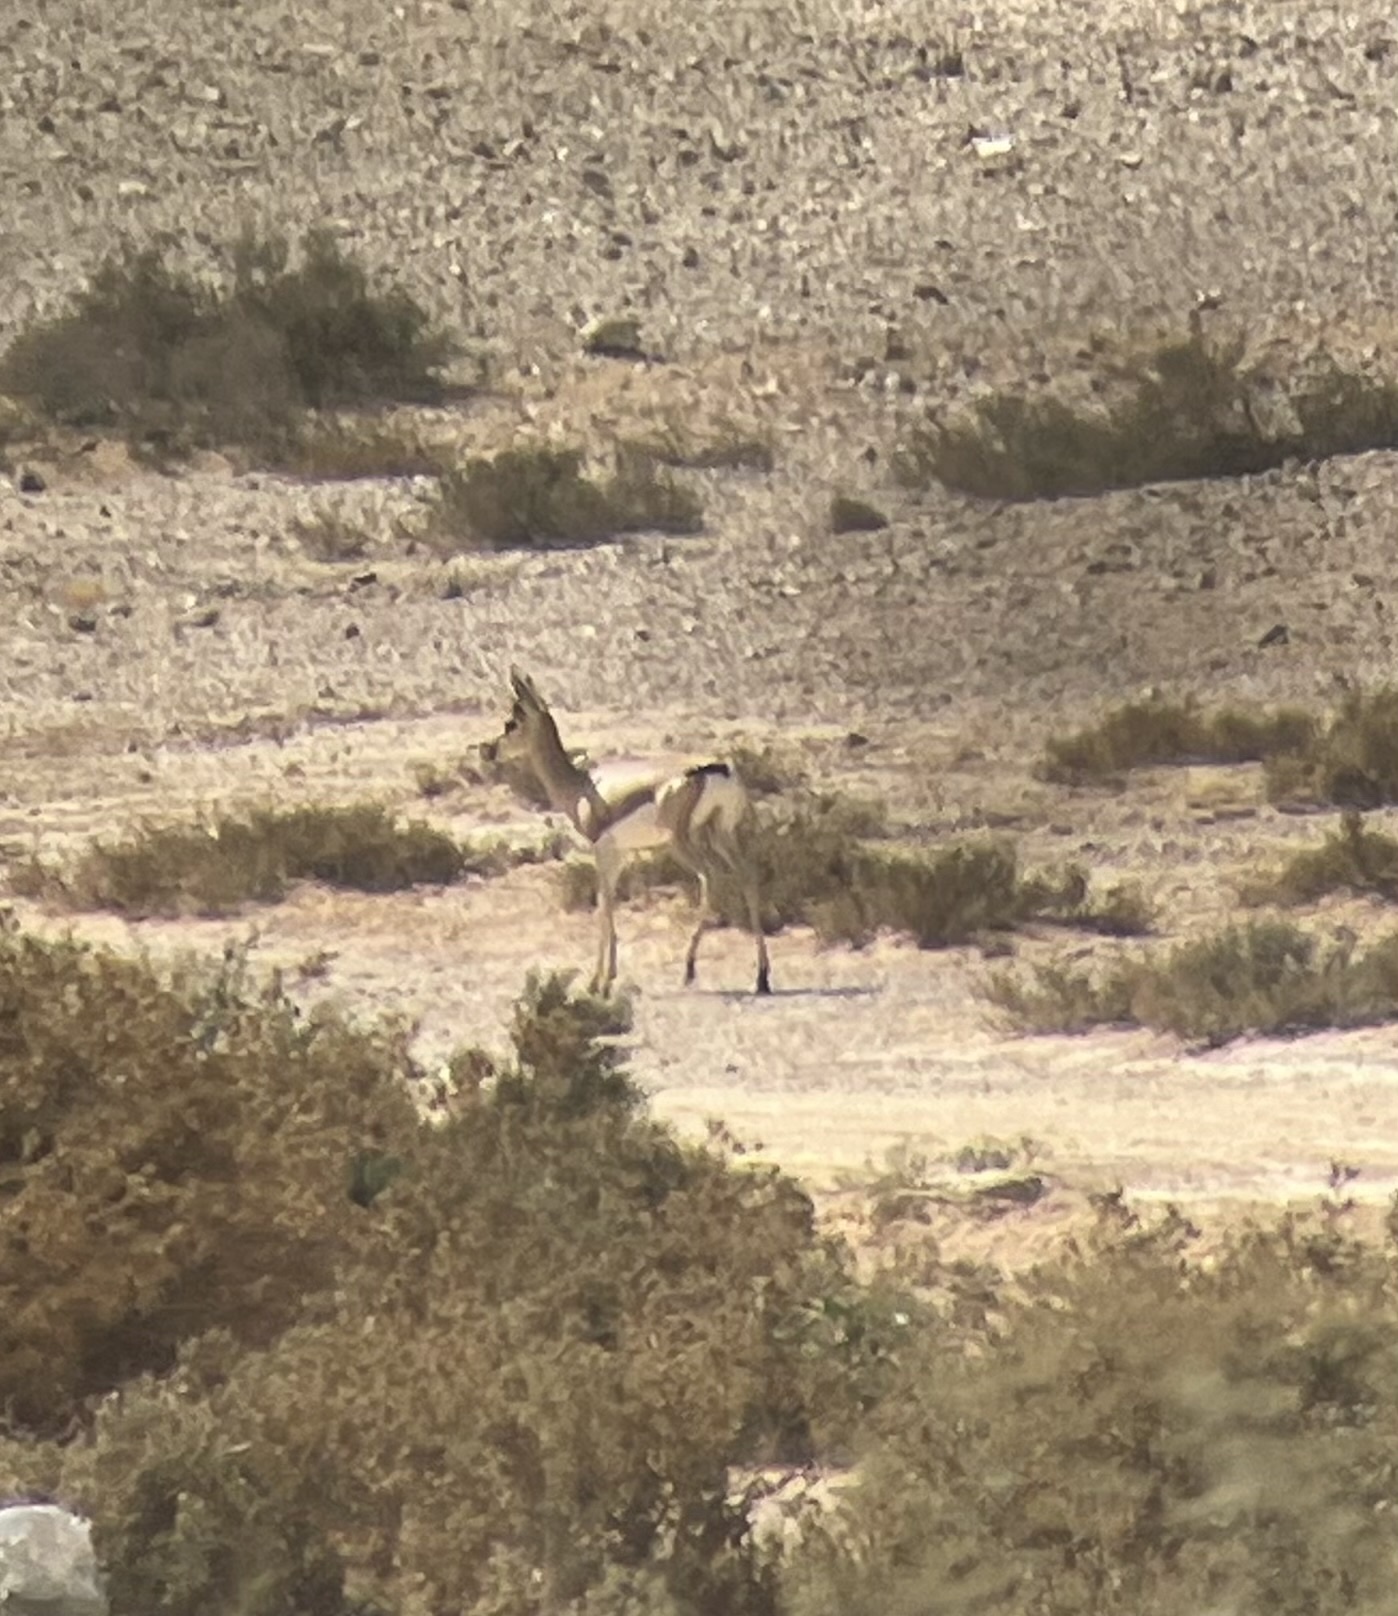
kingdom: Animalia
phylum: Chordata
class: Mammalia
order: Artiodactyla
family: Bovidae
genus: Gazella
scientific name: Gazella dorcas
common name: Dorcas gazelle
